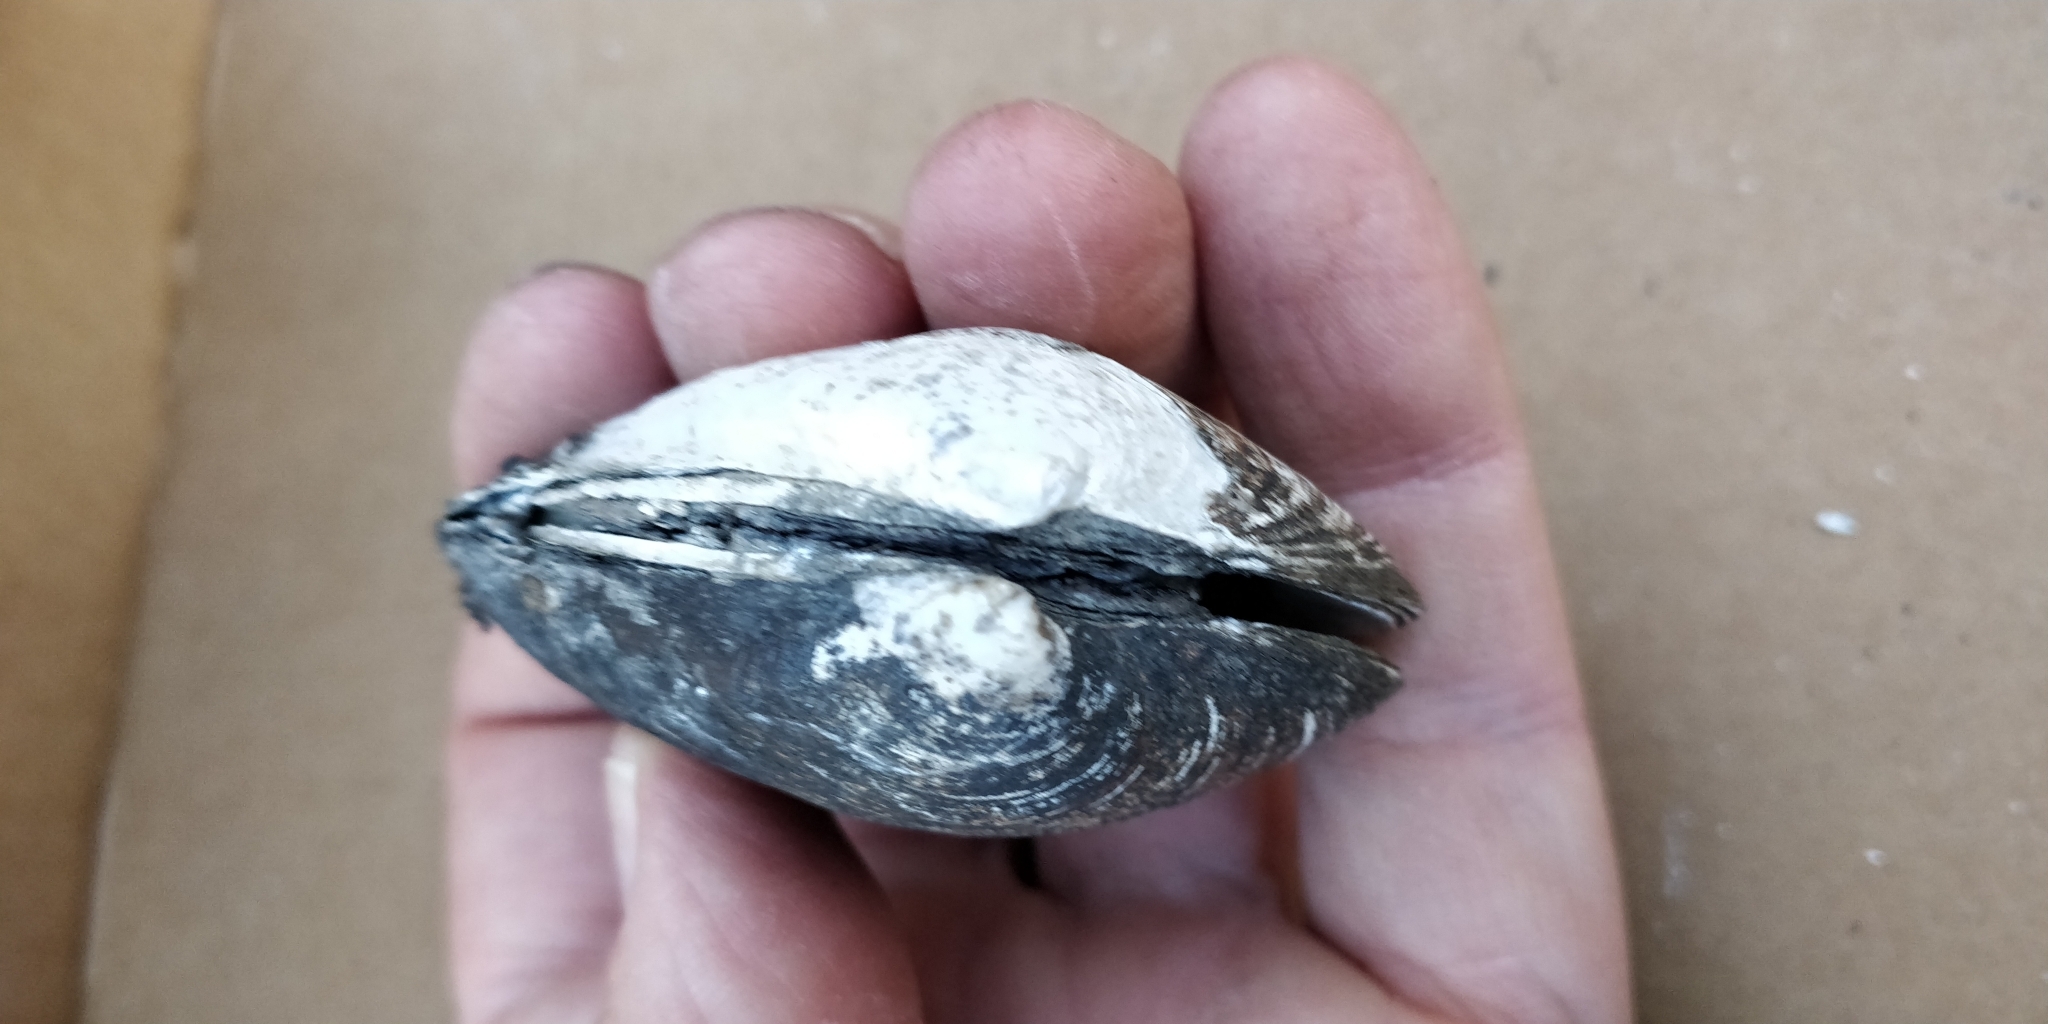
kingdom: Animalia
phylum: Mollusca
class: Bivalvia
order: Unionida
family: Unionidae
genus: Fusconaia
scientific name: Fusconaia flava
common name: Wabash pigtoe
